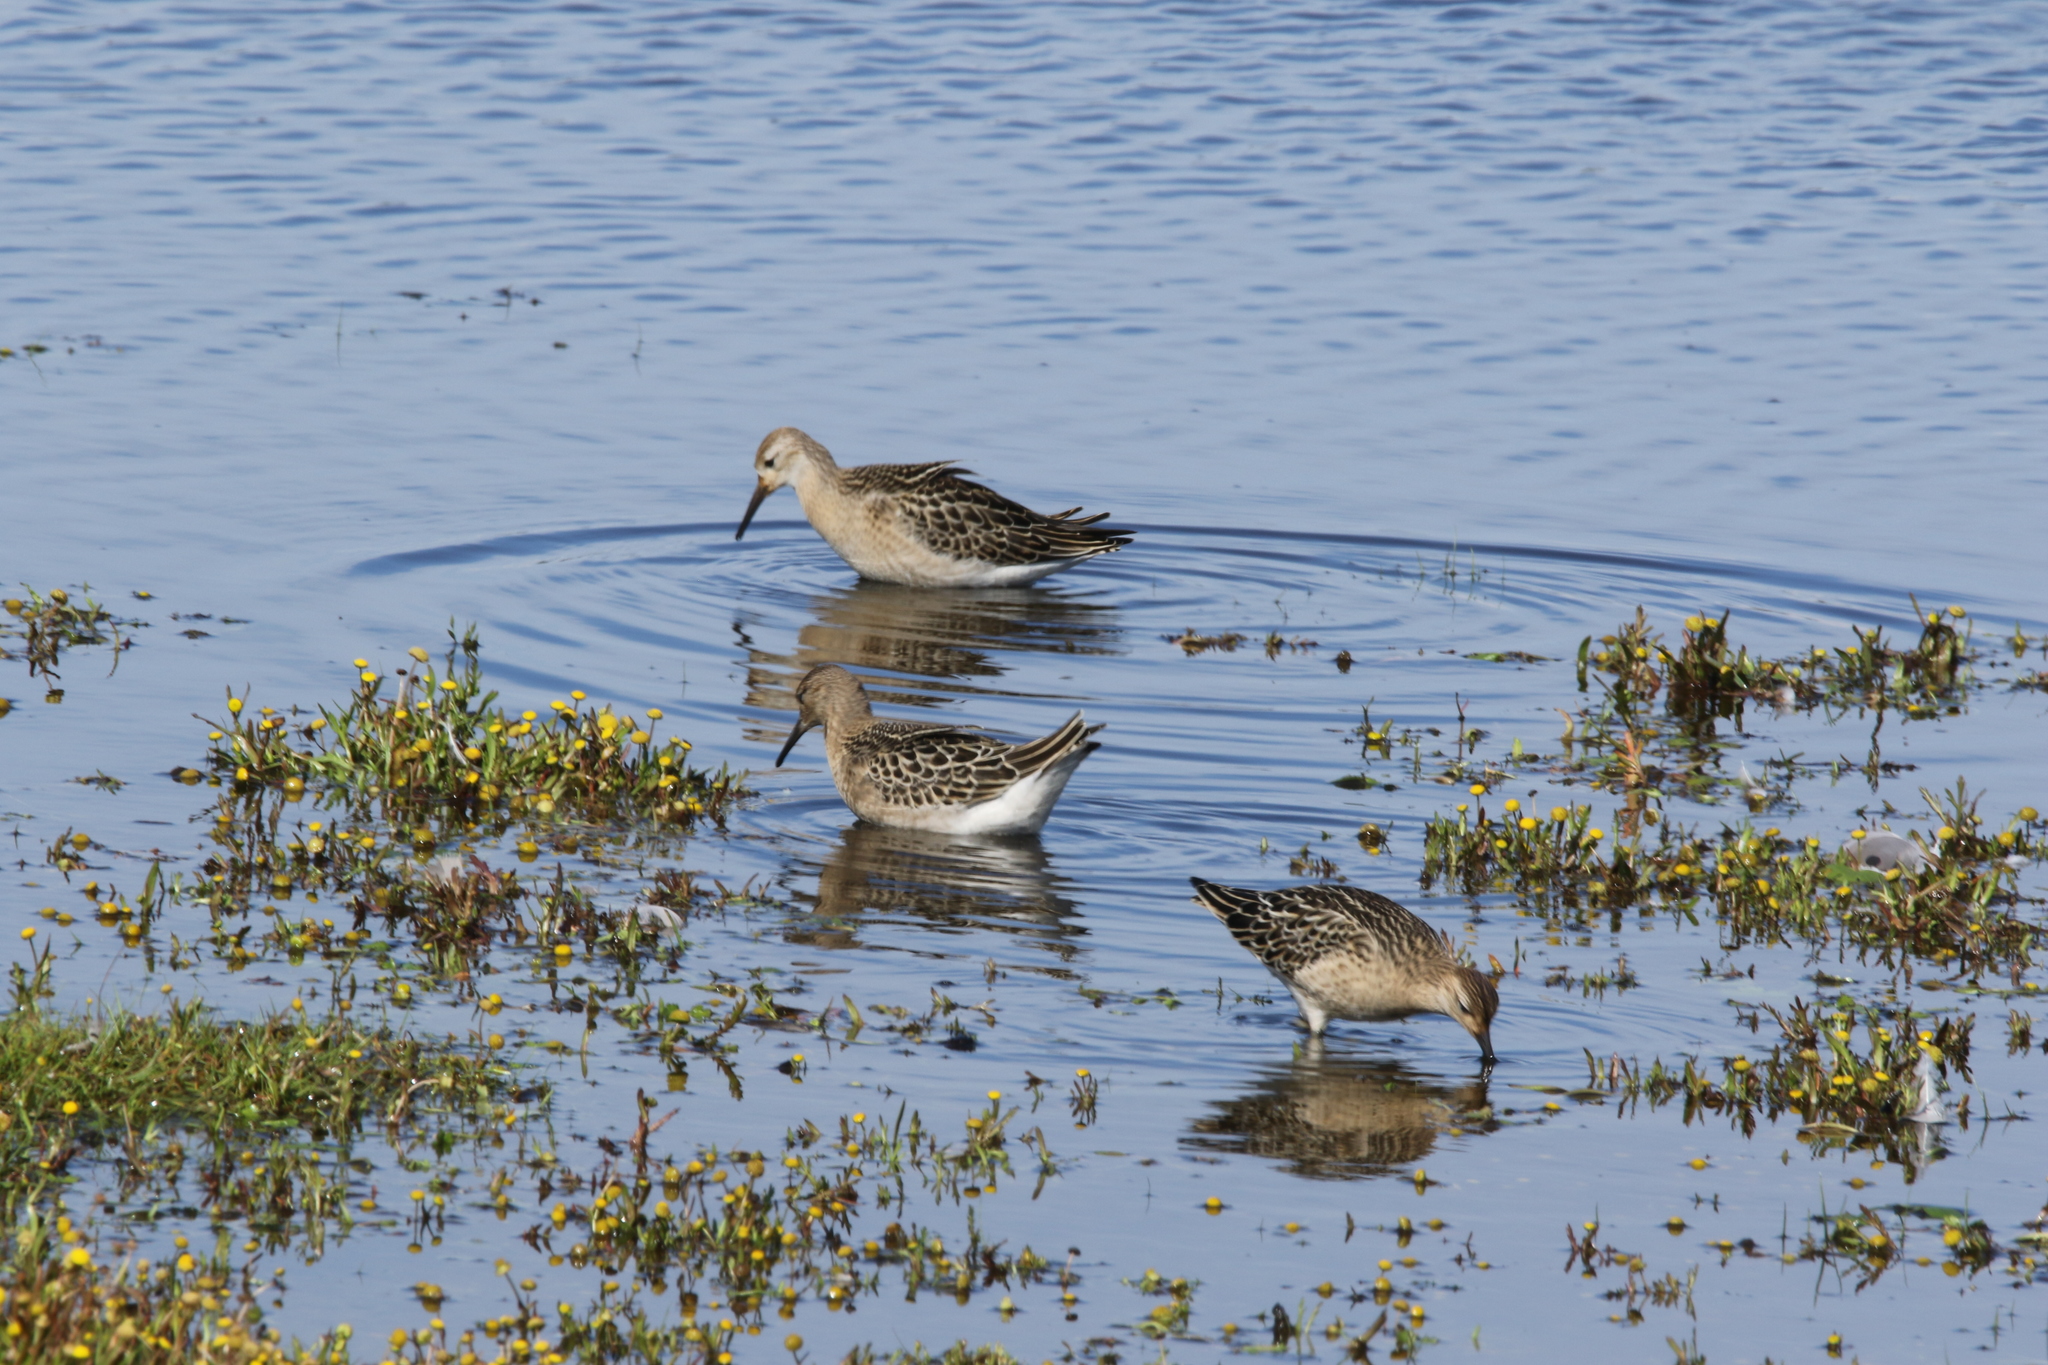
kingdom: Animalia
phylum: Chordata
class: Aves
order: Charadriiformes
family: Scolopacidae
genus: Calidris
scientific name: Calidris pugnax
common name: Ruff
